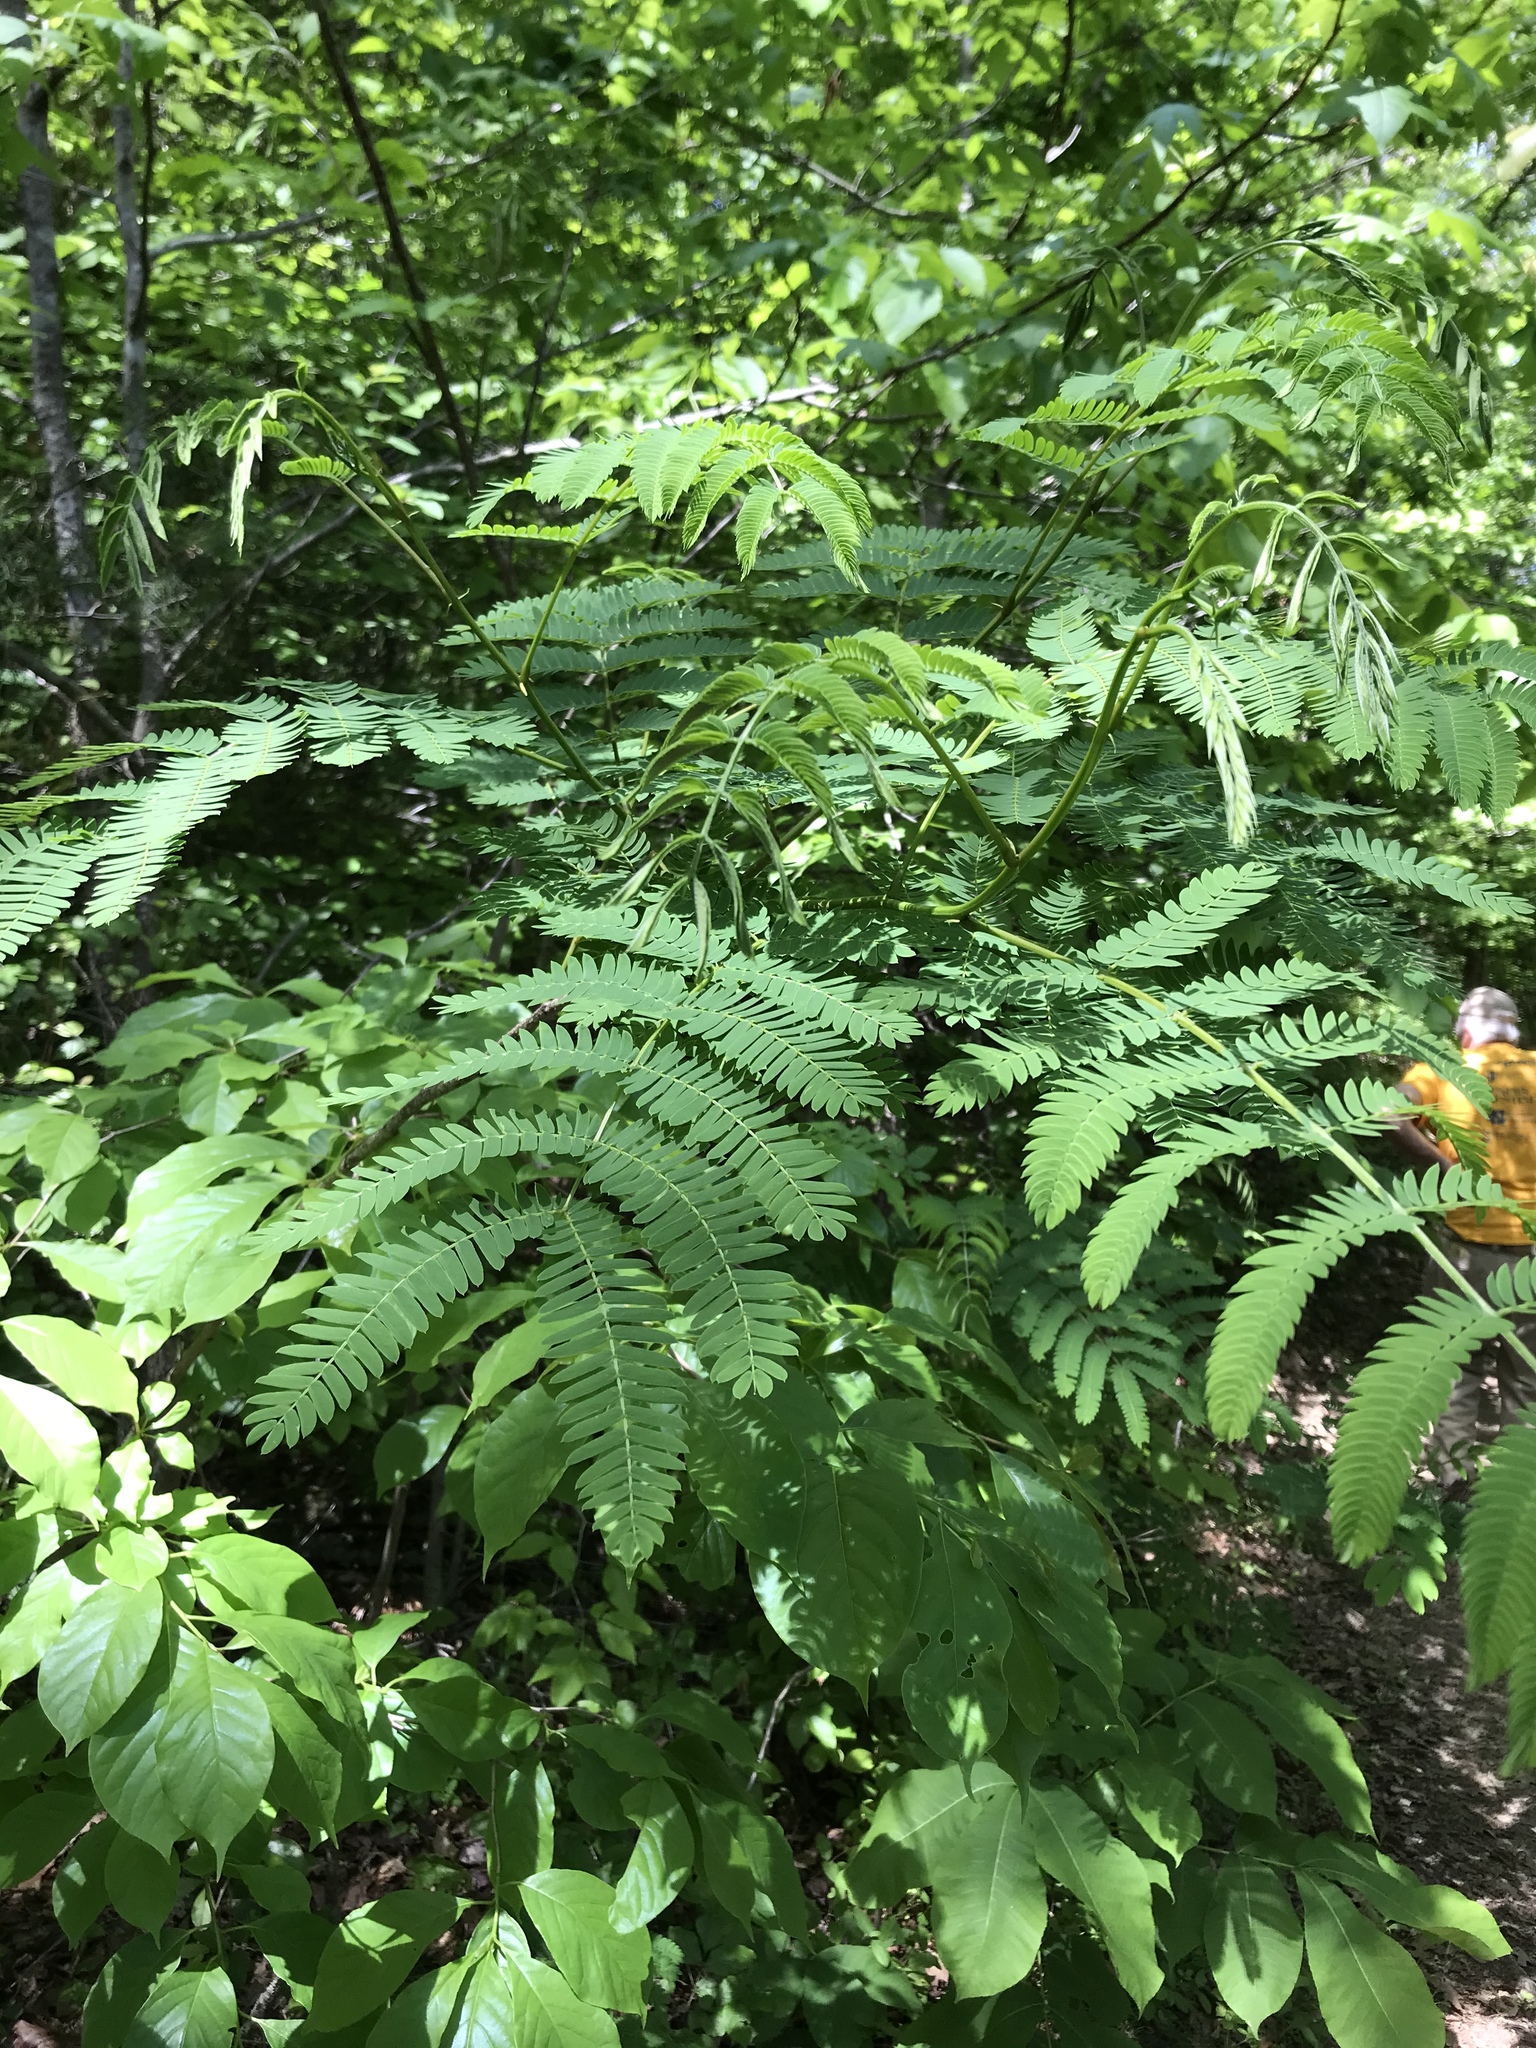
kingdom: Plantae
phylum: Tracheophyta
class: Magnoliopsida
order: Fabales
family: Fabaceae
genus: Albizia
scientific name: Albizia julibrissin
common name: Silktree
